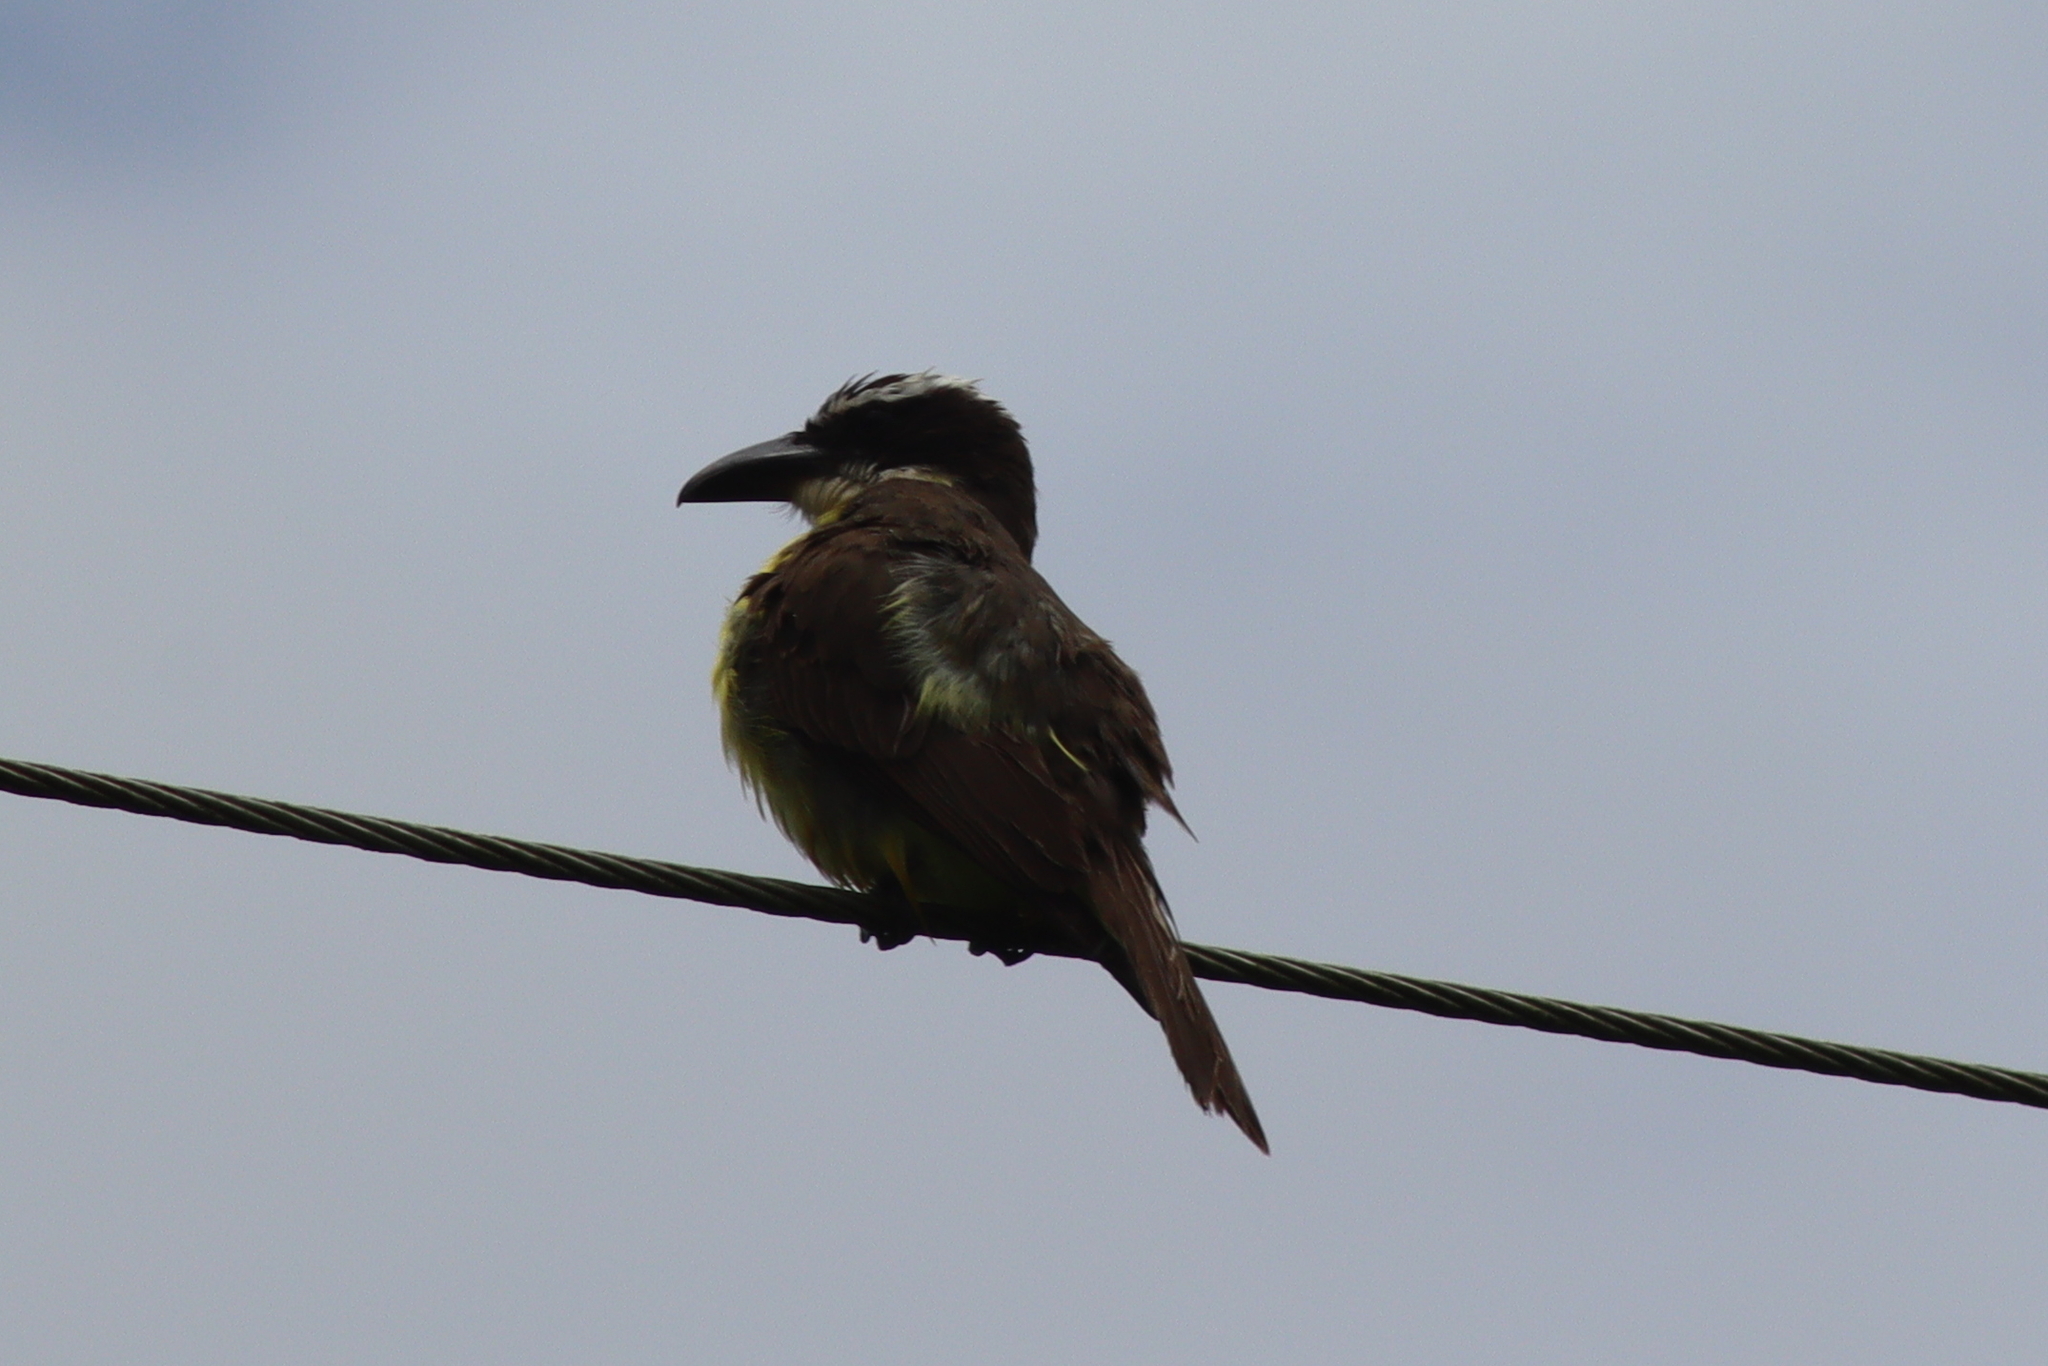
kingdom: Animalia
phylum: Chordata
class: Aves
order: Passeriformes
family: Tyrannidae
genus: Megarynchus
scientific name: Megarynchus pitangua
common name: Boat-billed flycatcher
